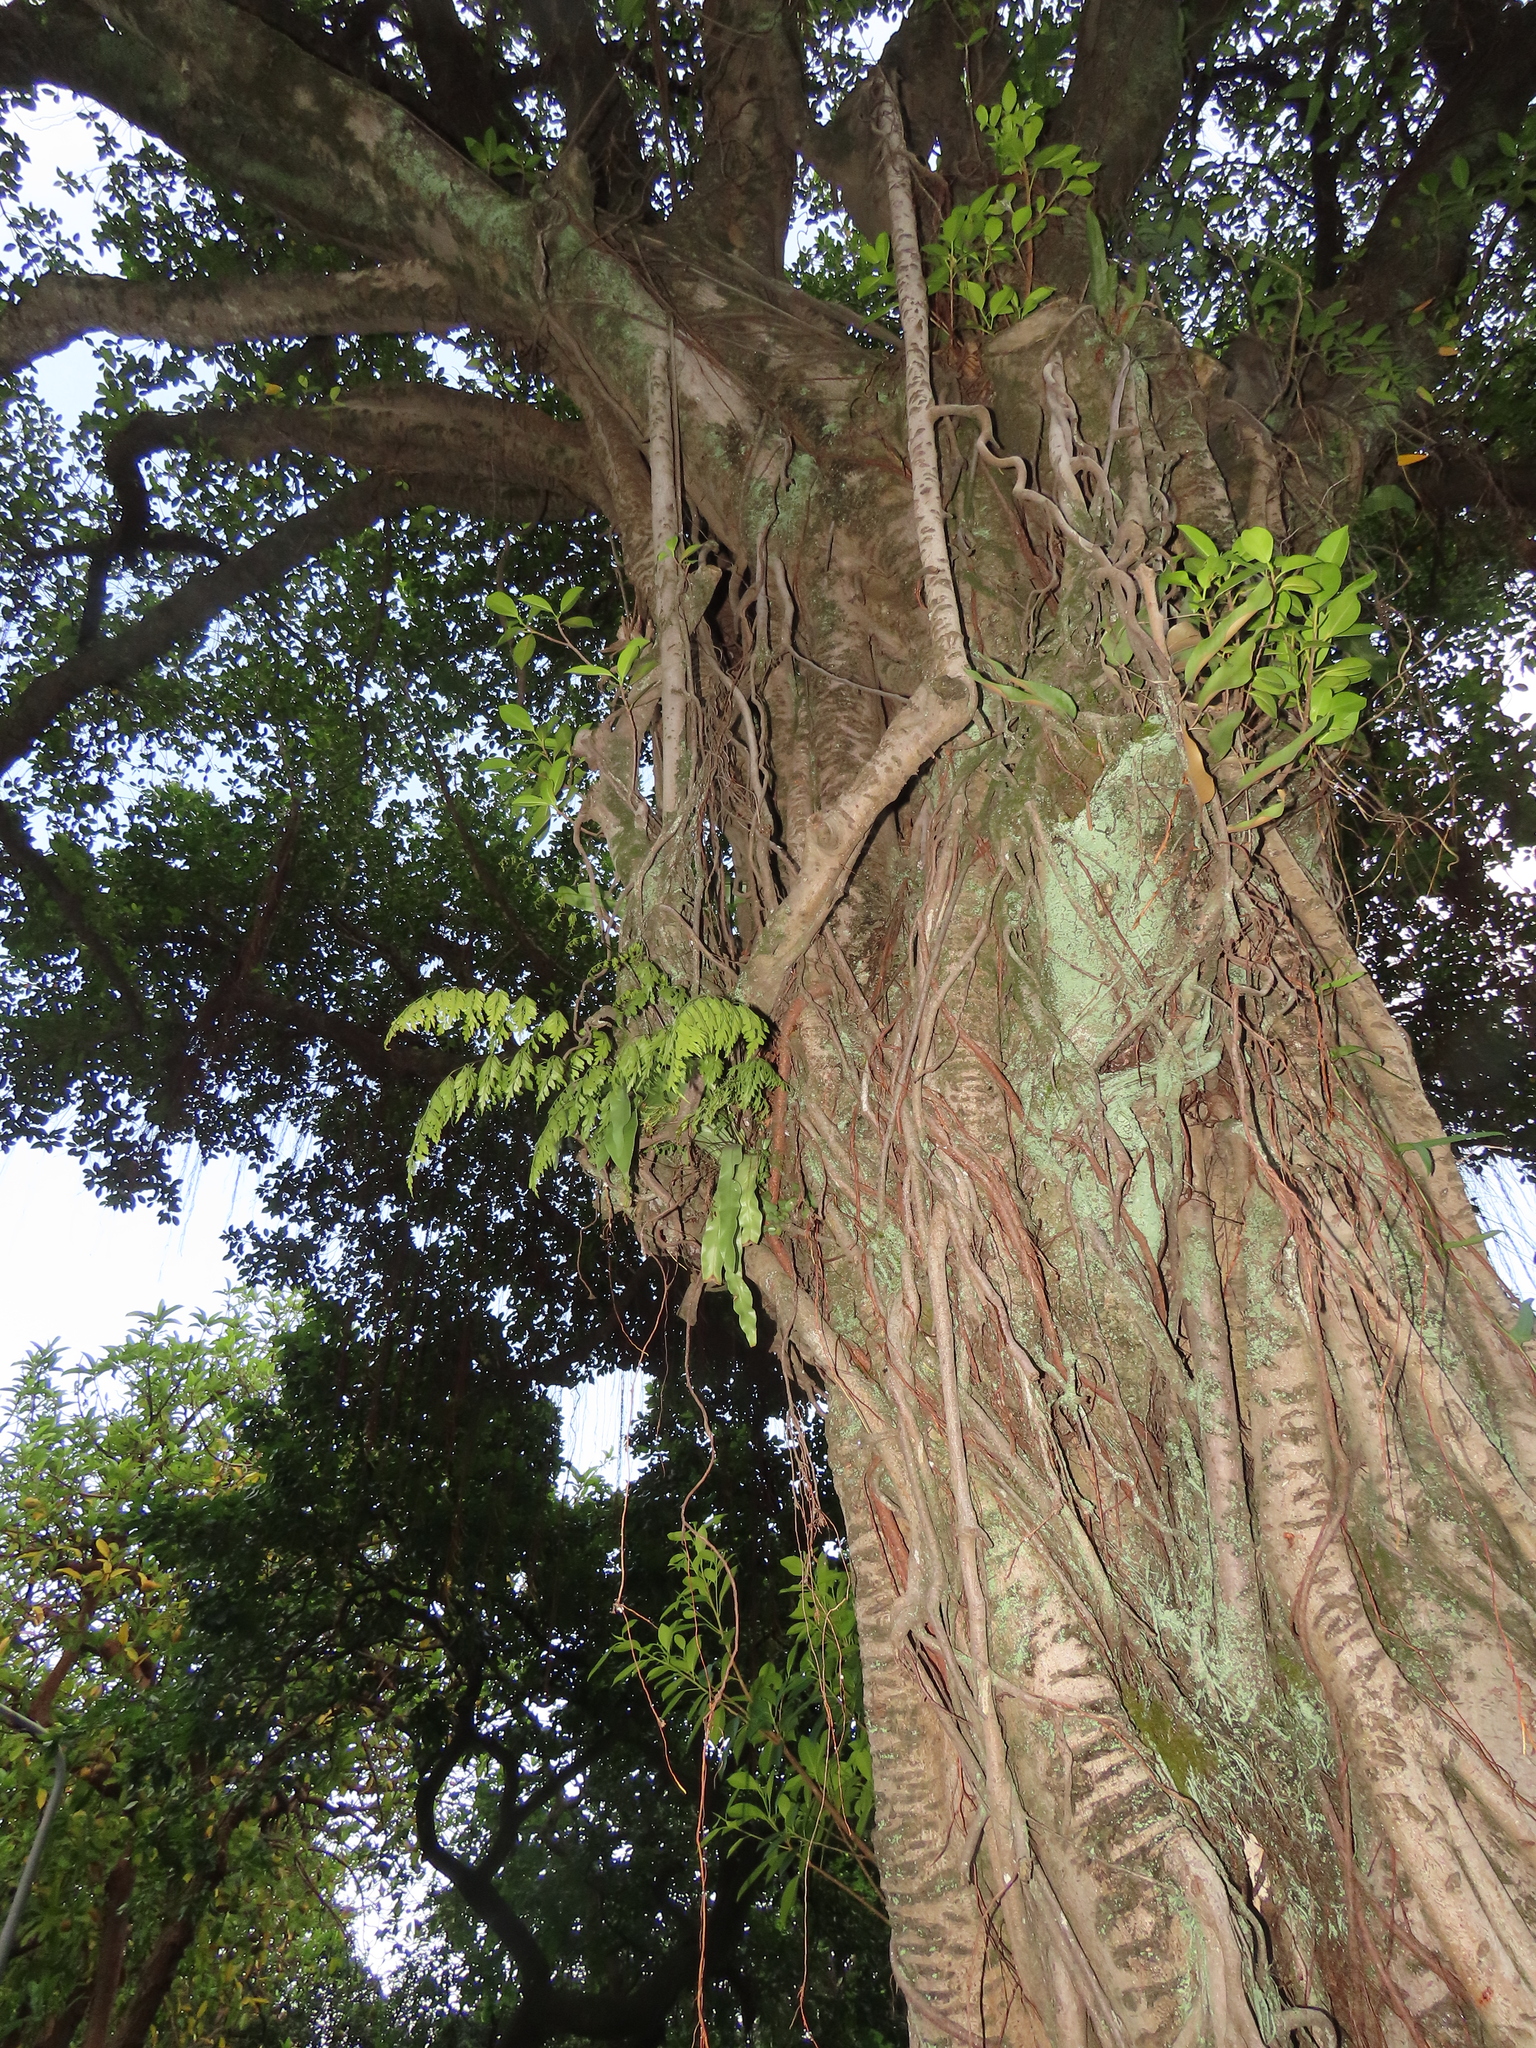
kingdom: Plantae
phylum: Tracheophyta
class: Polypodiopsida
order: Polypodiales
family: Polypodiaceae
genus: Pyrrosia
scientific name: Pyrrosia lingua
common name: Felt fern
